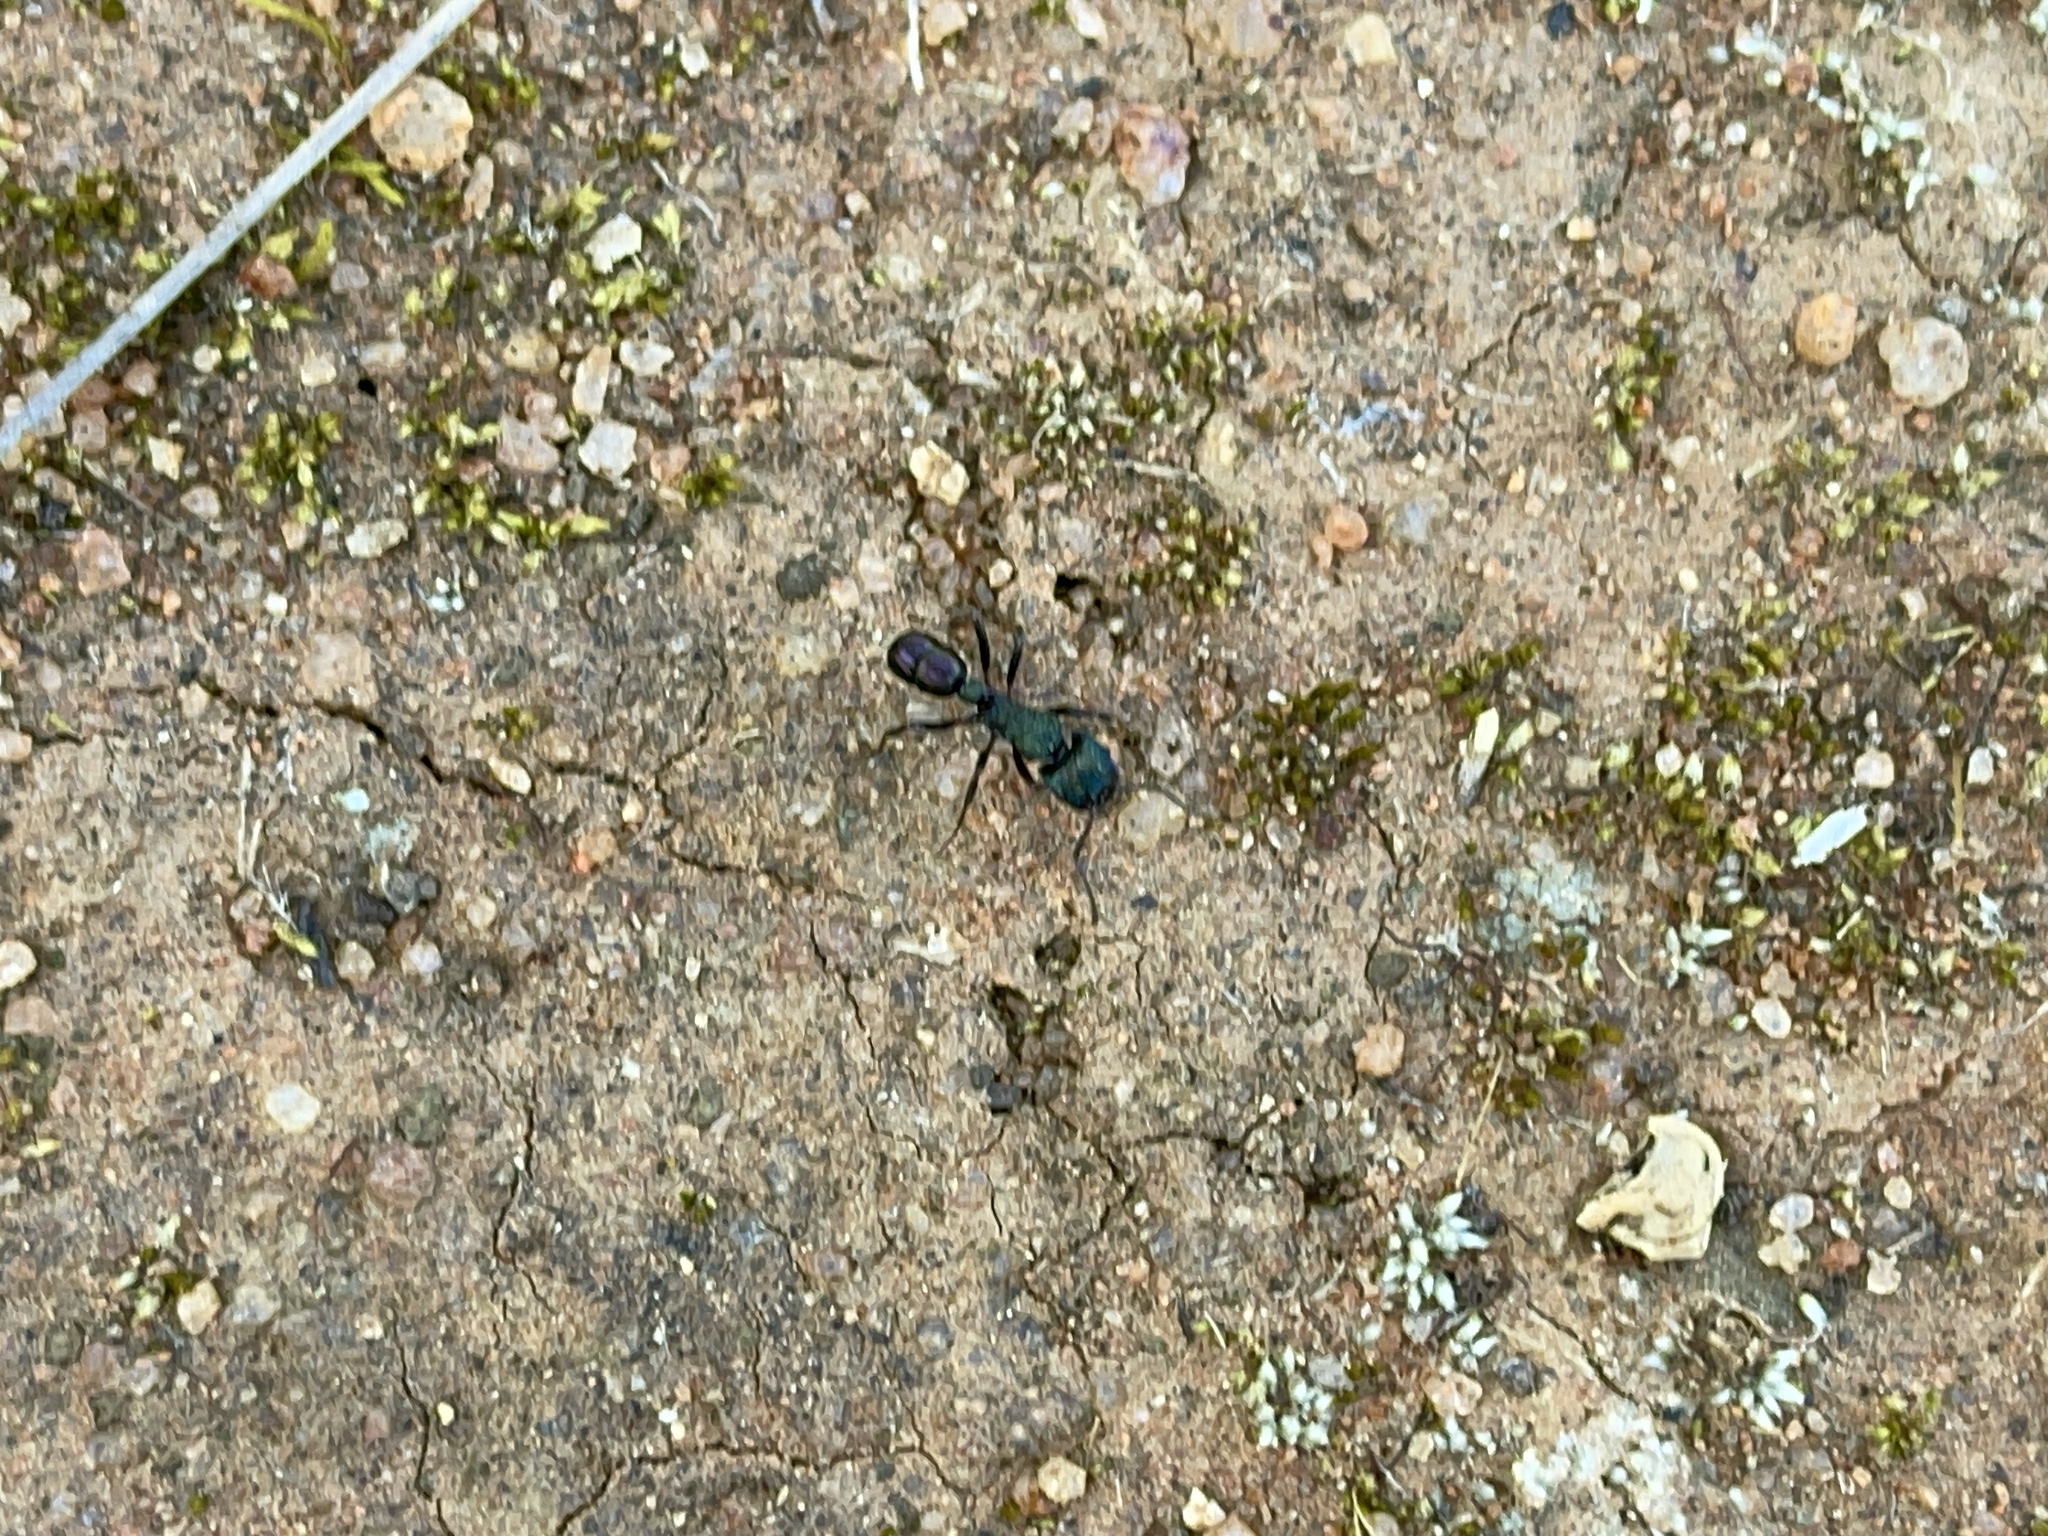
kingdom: Animalia
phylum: Arthropoda
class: Insecta
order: Hymenoptera
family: Formicidae
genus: Rhytidoponera
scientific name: Rhytidoponera metallica
